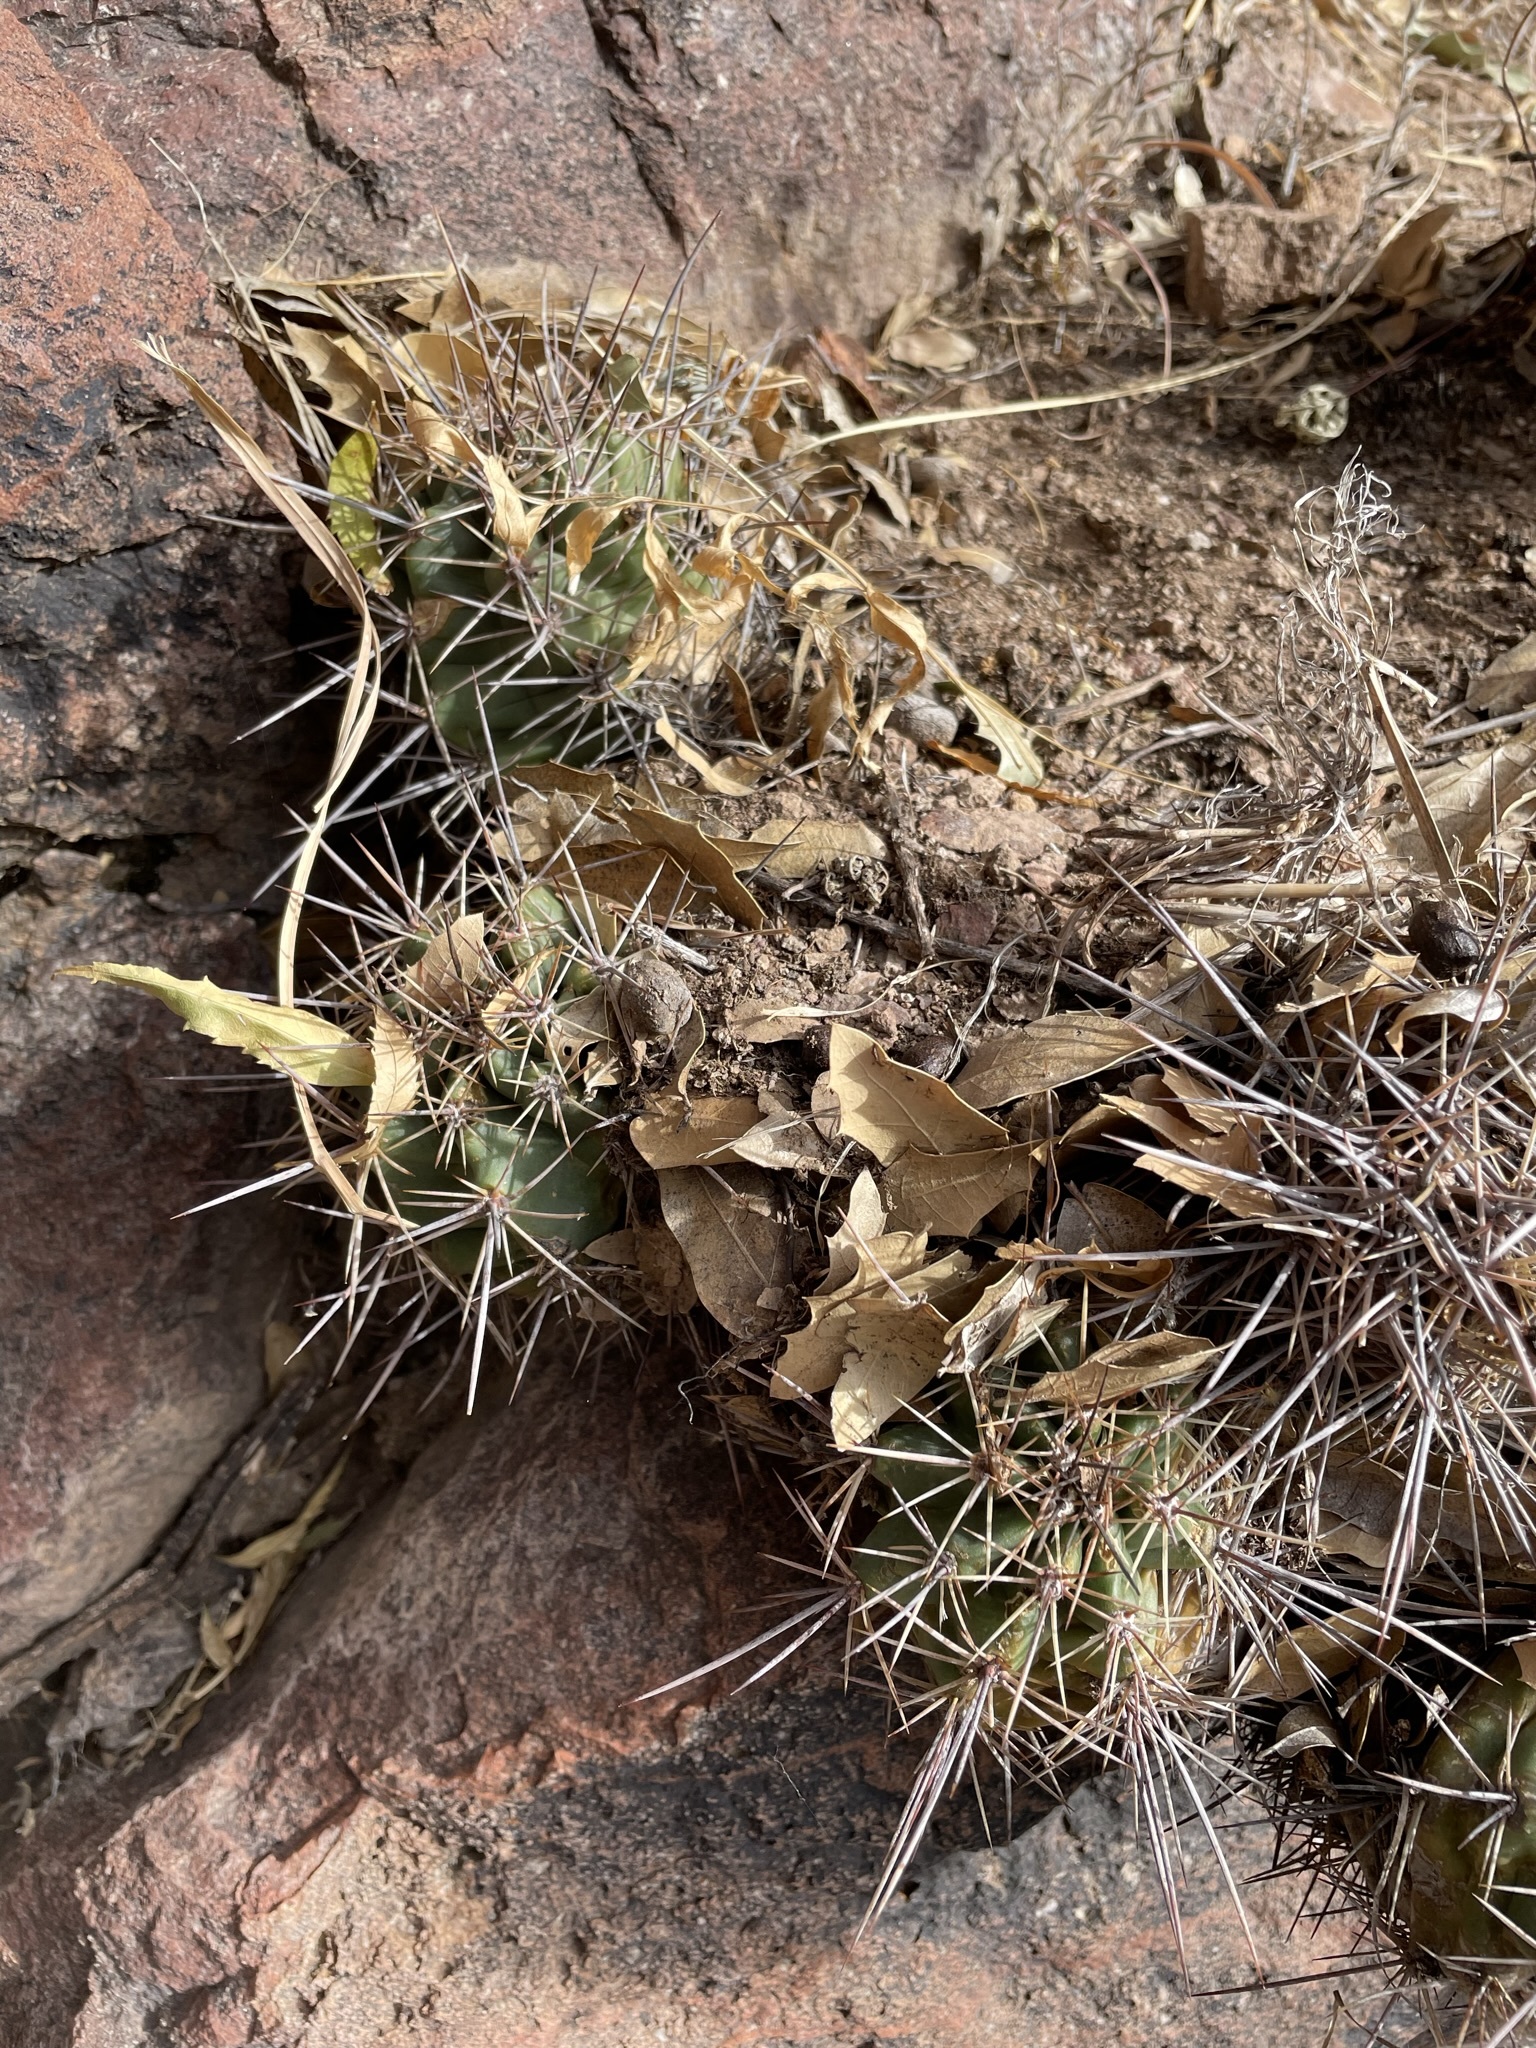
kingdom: Plantae
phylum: Tracheophyta
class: Magnoliopsida
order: Caryophyllales
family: Cactaceae
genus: Echinocereus
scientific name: Echinocereus coccineus
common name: Scarlet hedgehog cactus
